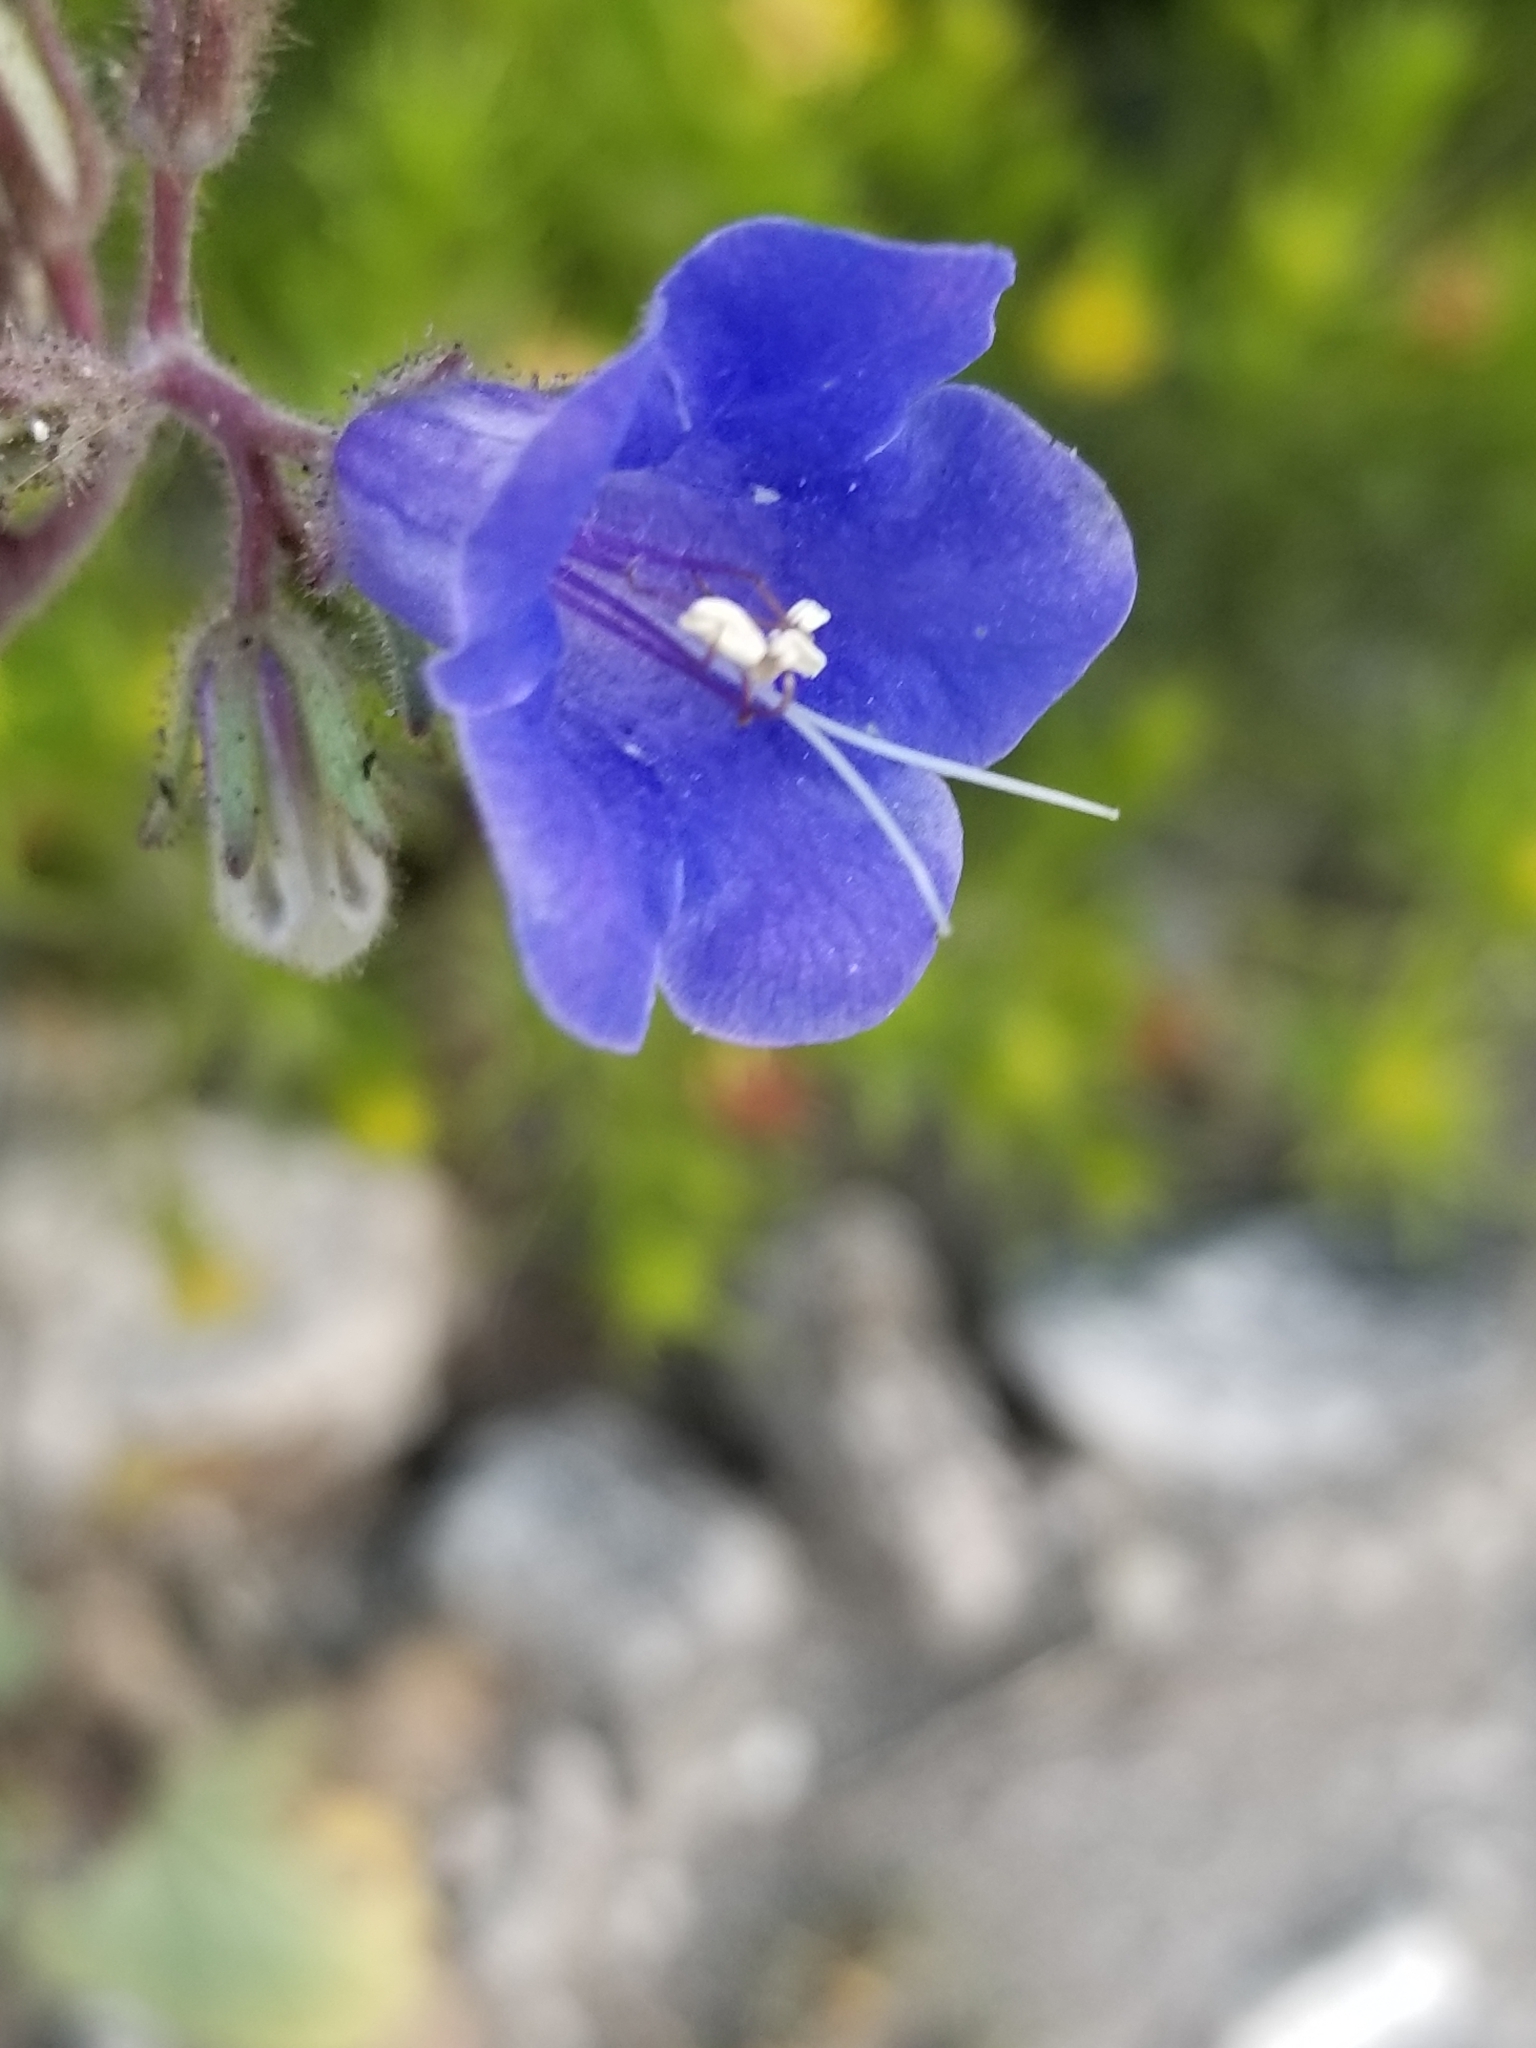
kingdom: Plantae
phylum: Tracheophyta
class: Magnoliopsida
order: Boraginales
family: Hydrophyllaceae
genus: Phacelia
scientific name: Phacelia campanularia
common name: California bluebell
